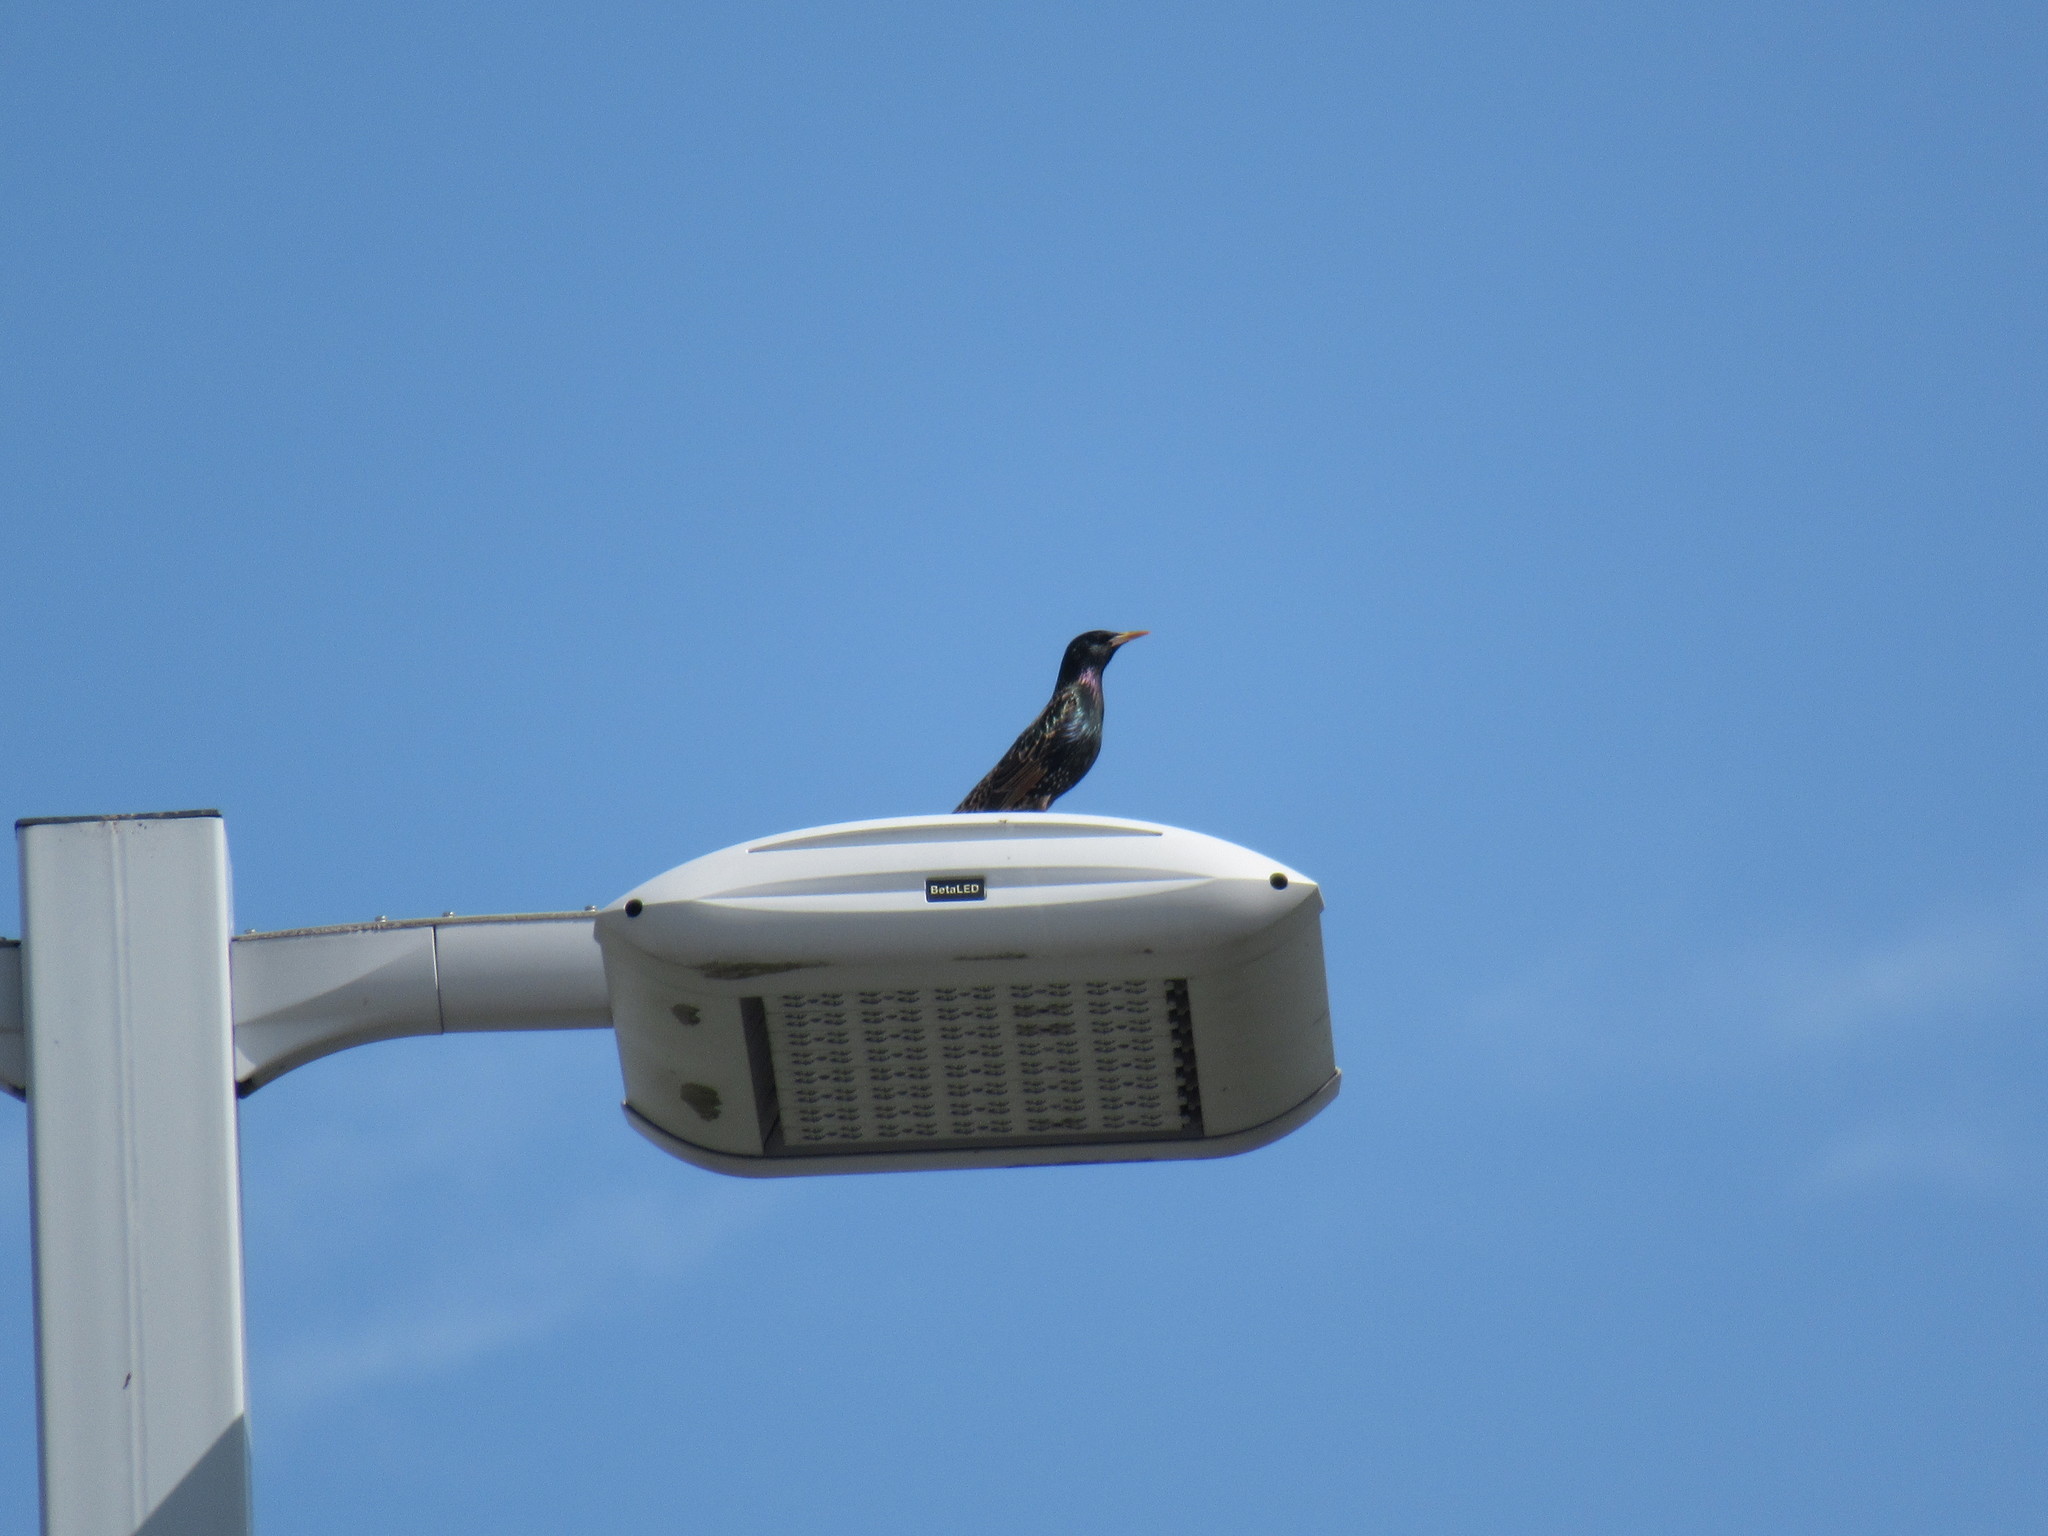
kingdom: Animalia
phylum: Chordata
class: Aves
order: Passeriformes
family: Sturnidae
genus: Sturnus
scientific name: Sturnus vulgaris
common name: Common starling
